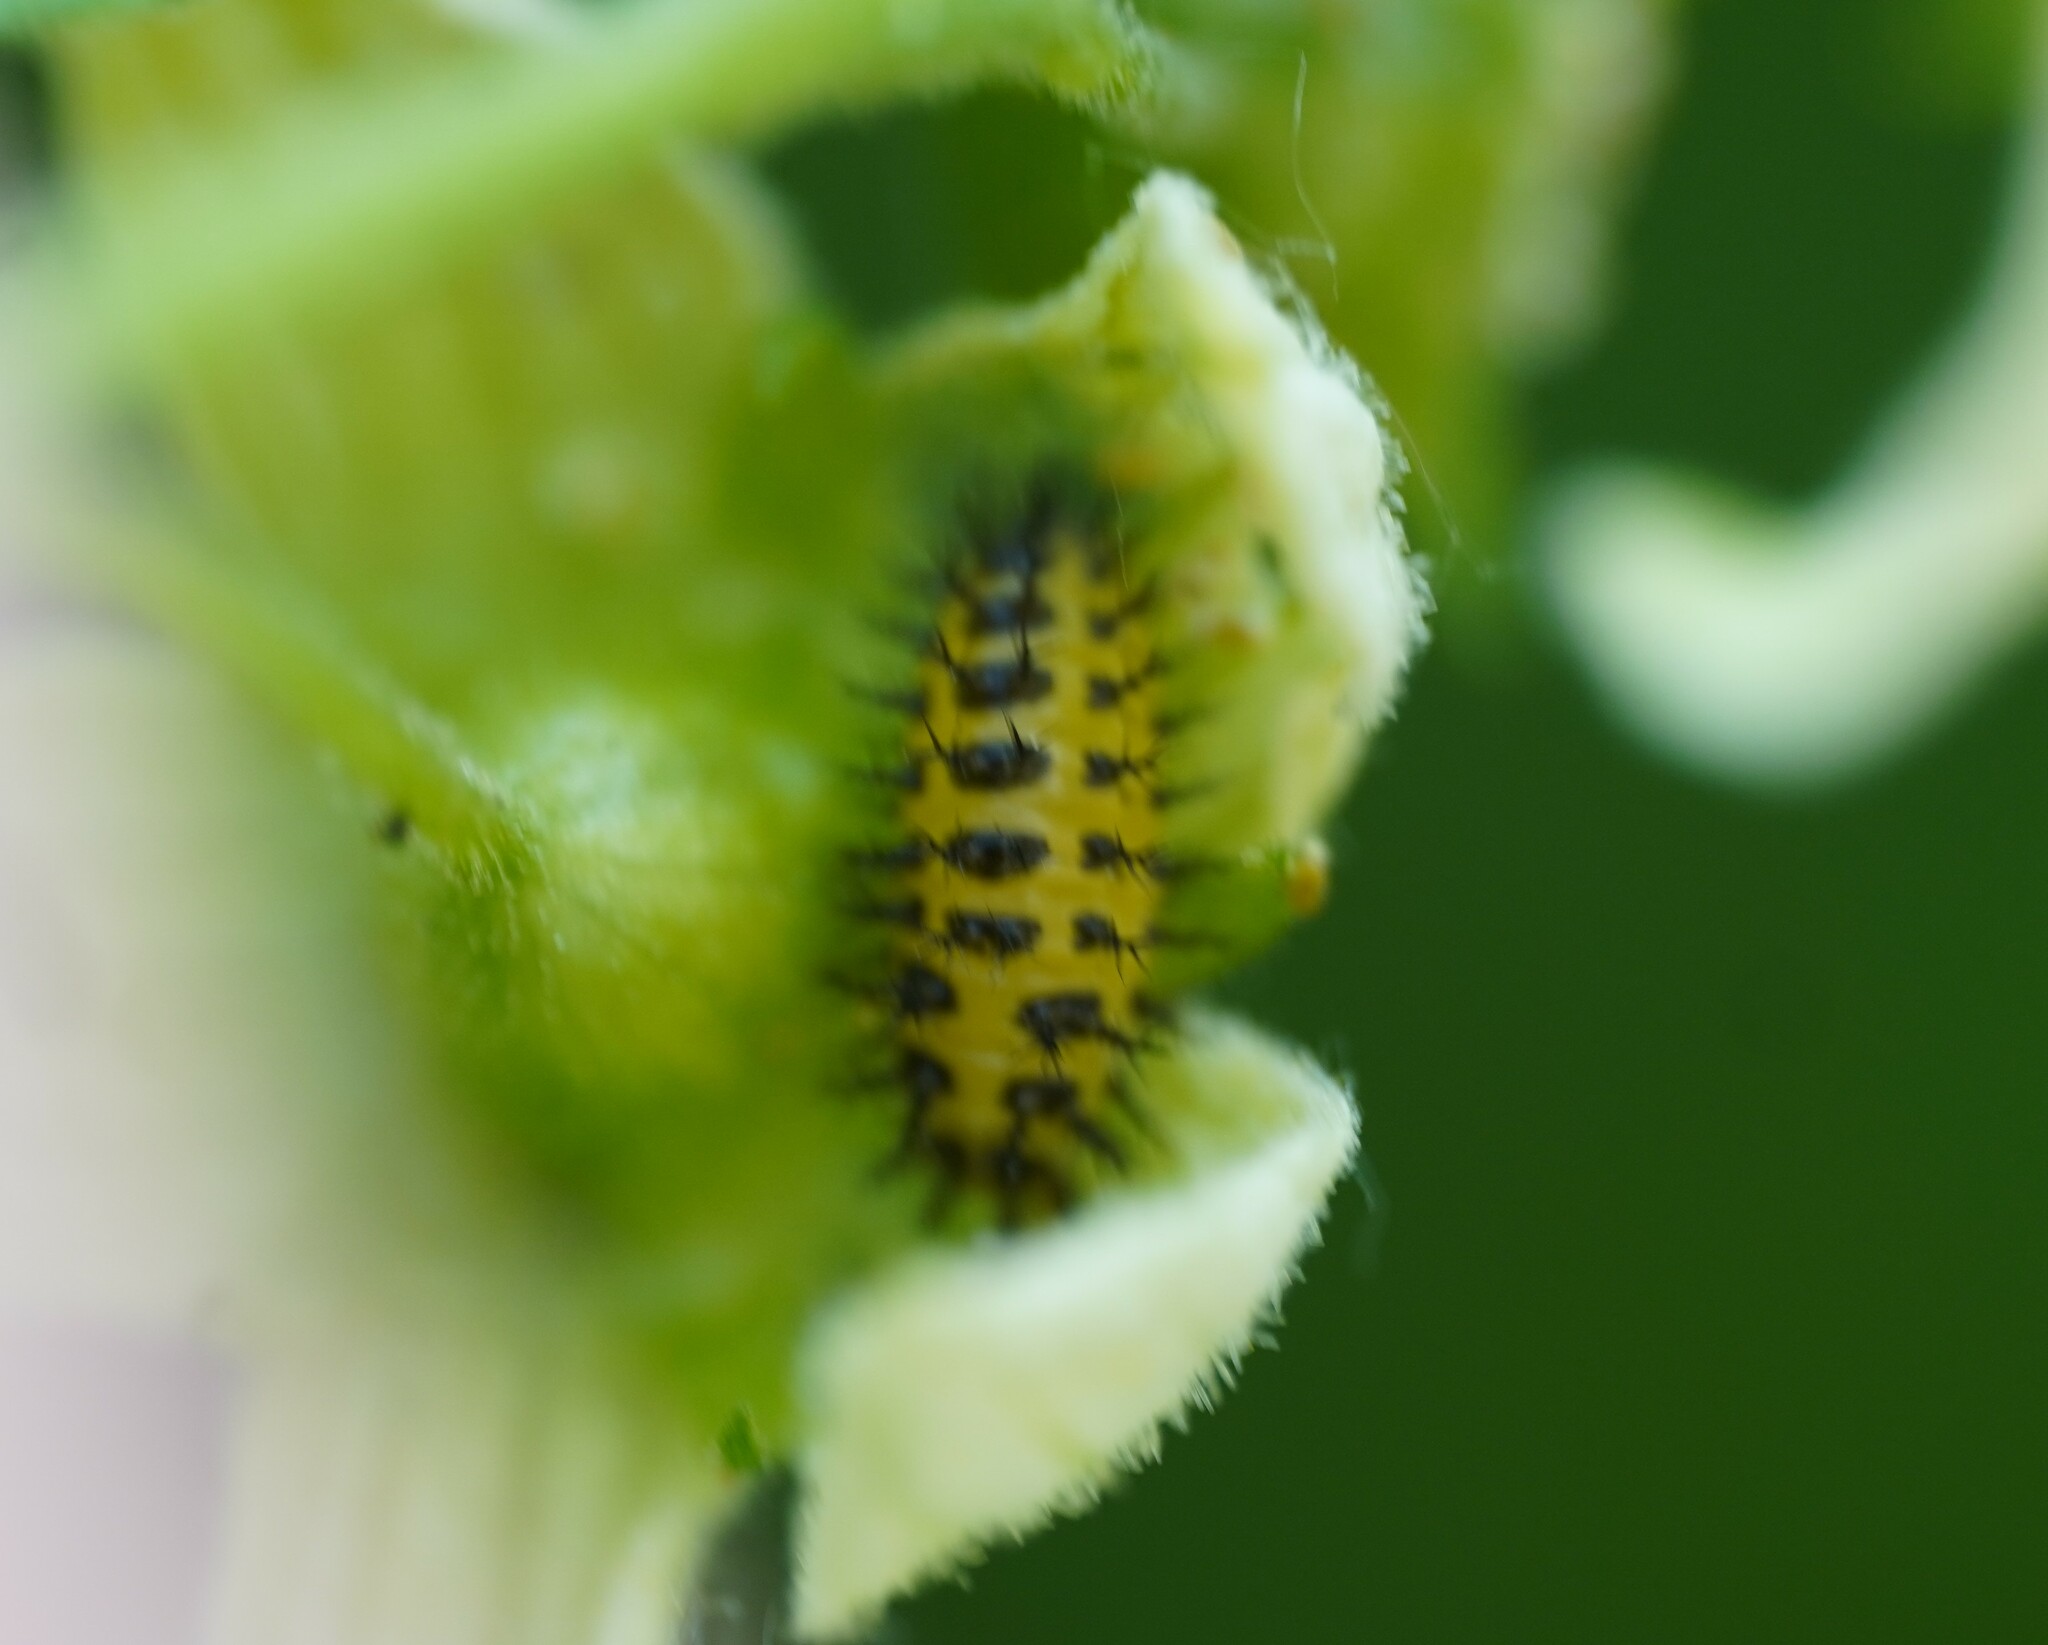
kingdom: Animalia
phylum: Arthropoda
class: Insecta
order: Coleoptera
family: Coccinellidae
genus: Henosepilachna
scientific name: Henosepilachna argus
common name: Bryony ladybird
